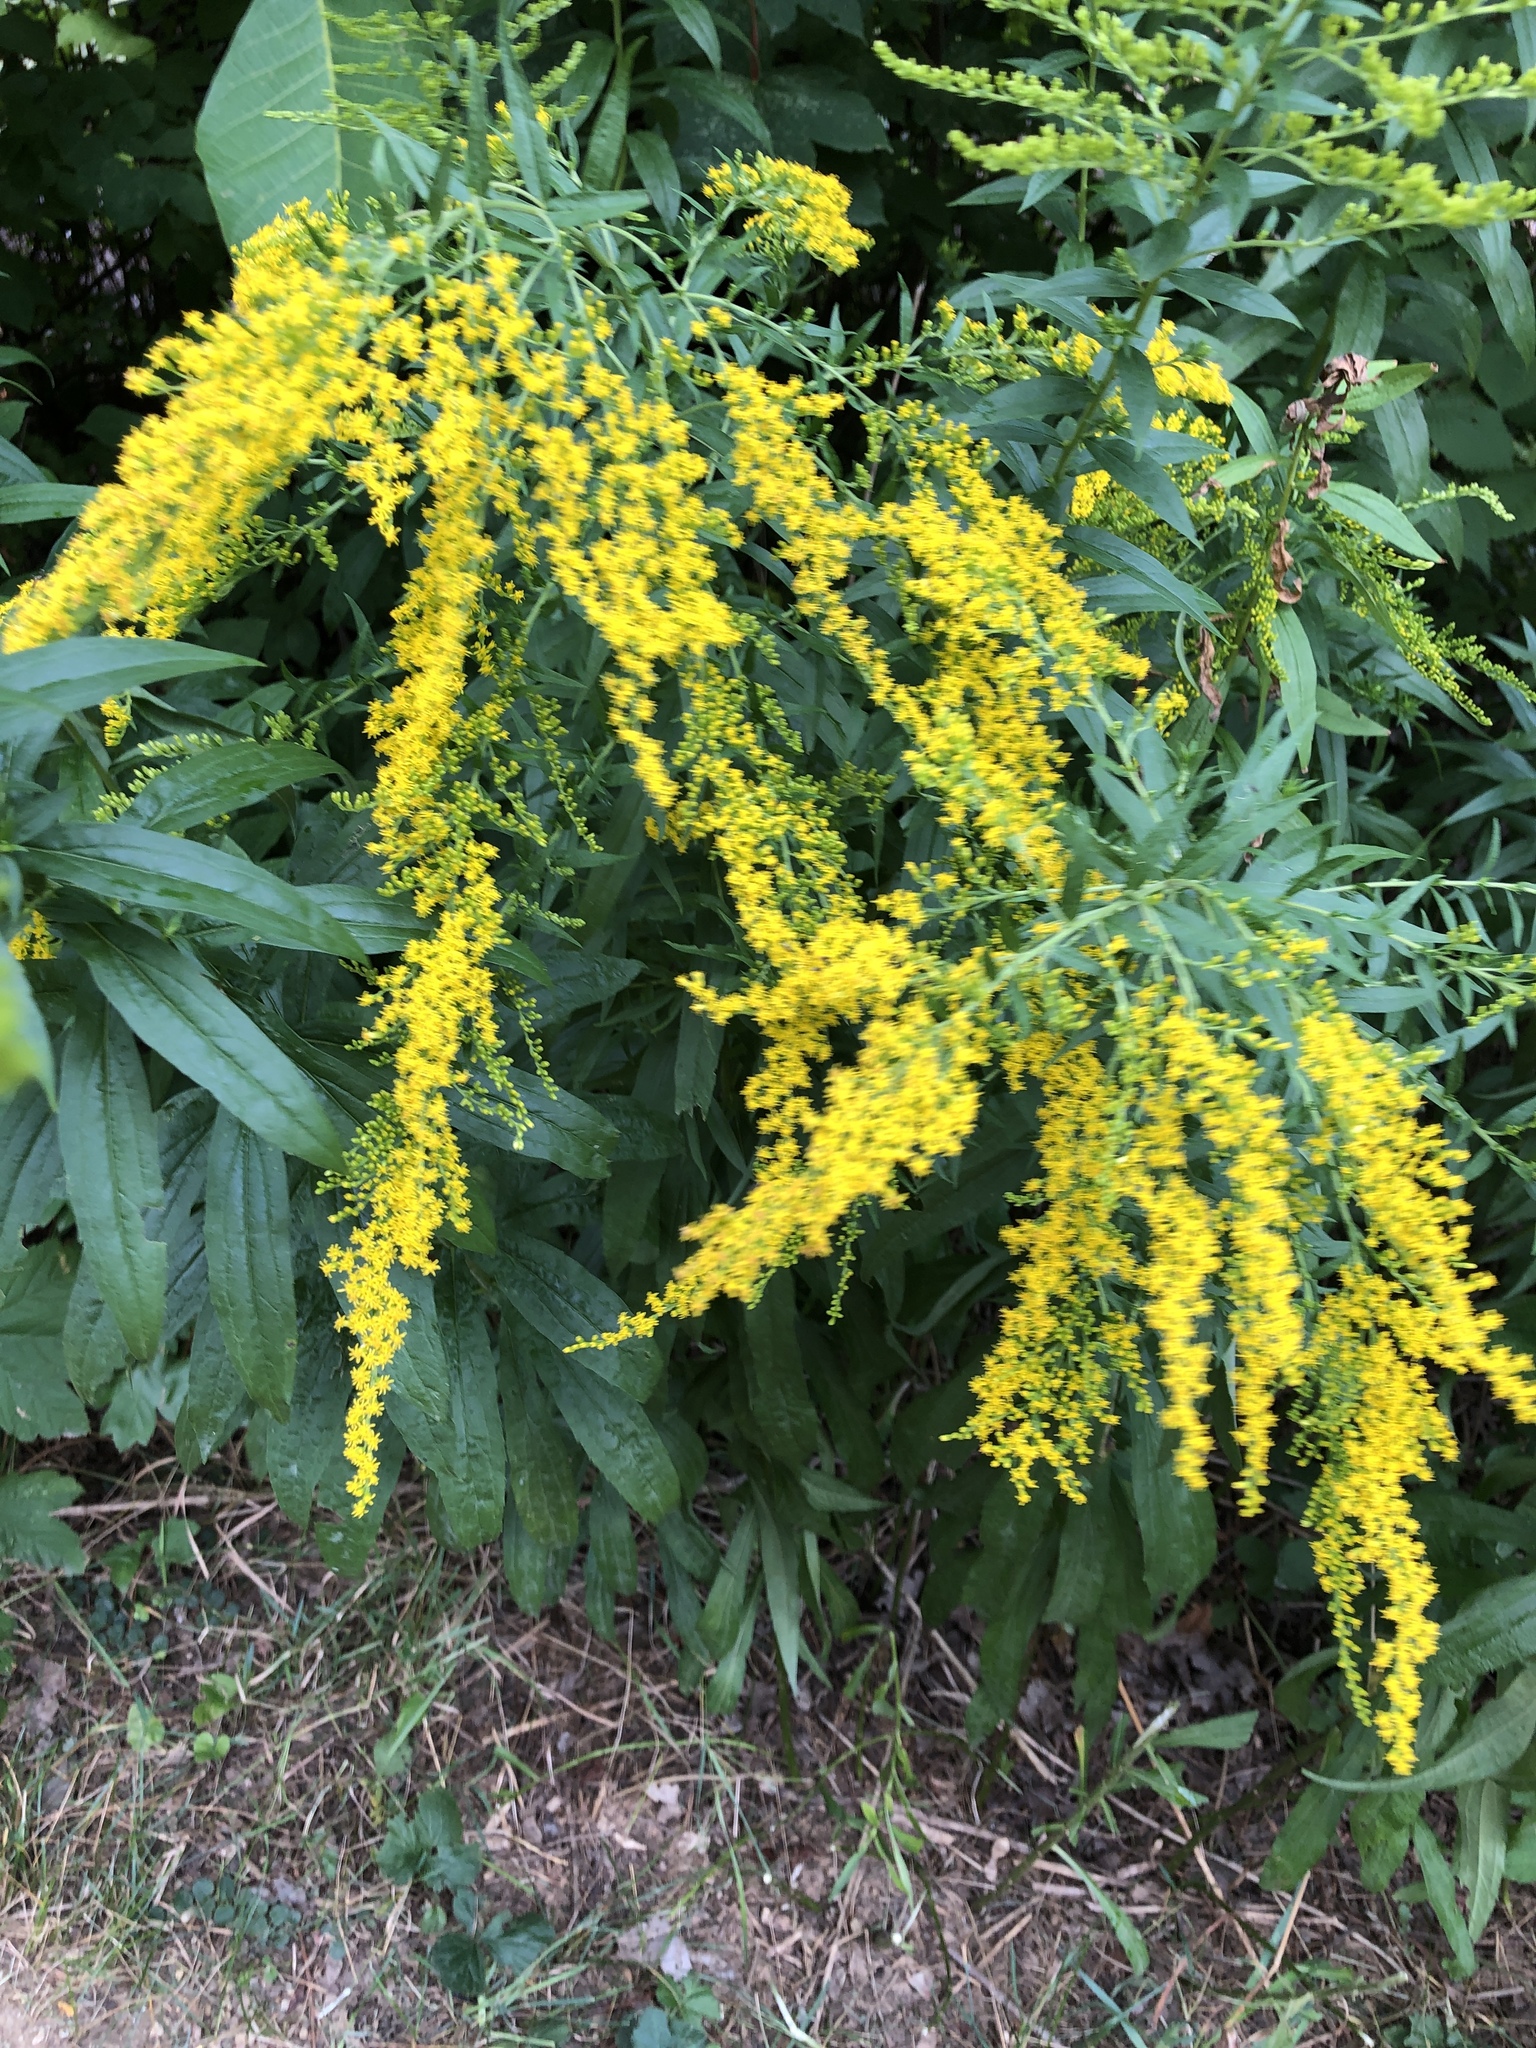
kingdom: Plantae
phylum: Tracheophyta
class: Magnoliopsida
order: Asterales
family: Asteraceae
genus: Solidago
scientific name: Solidago canadensis
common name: Canada goldenrod
